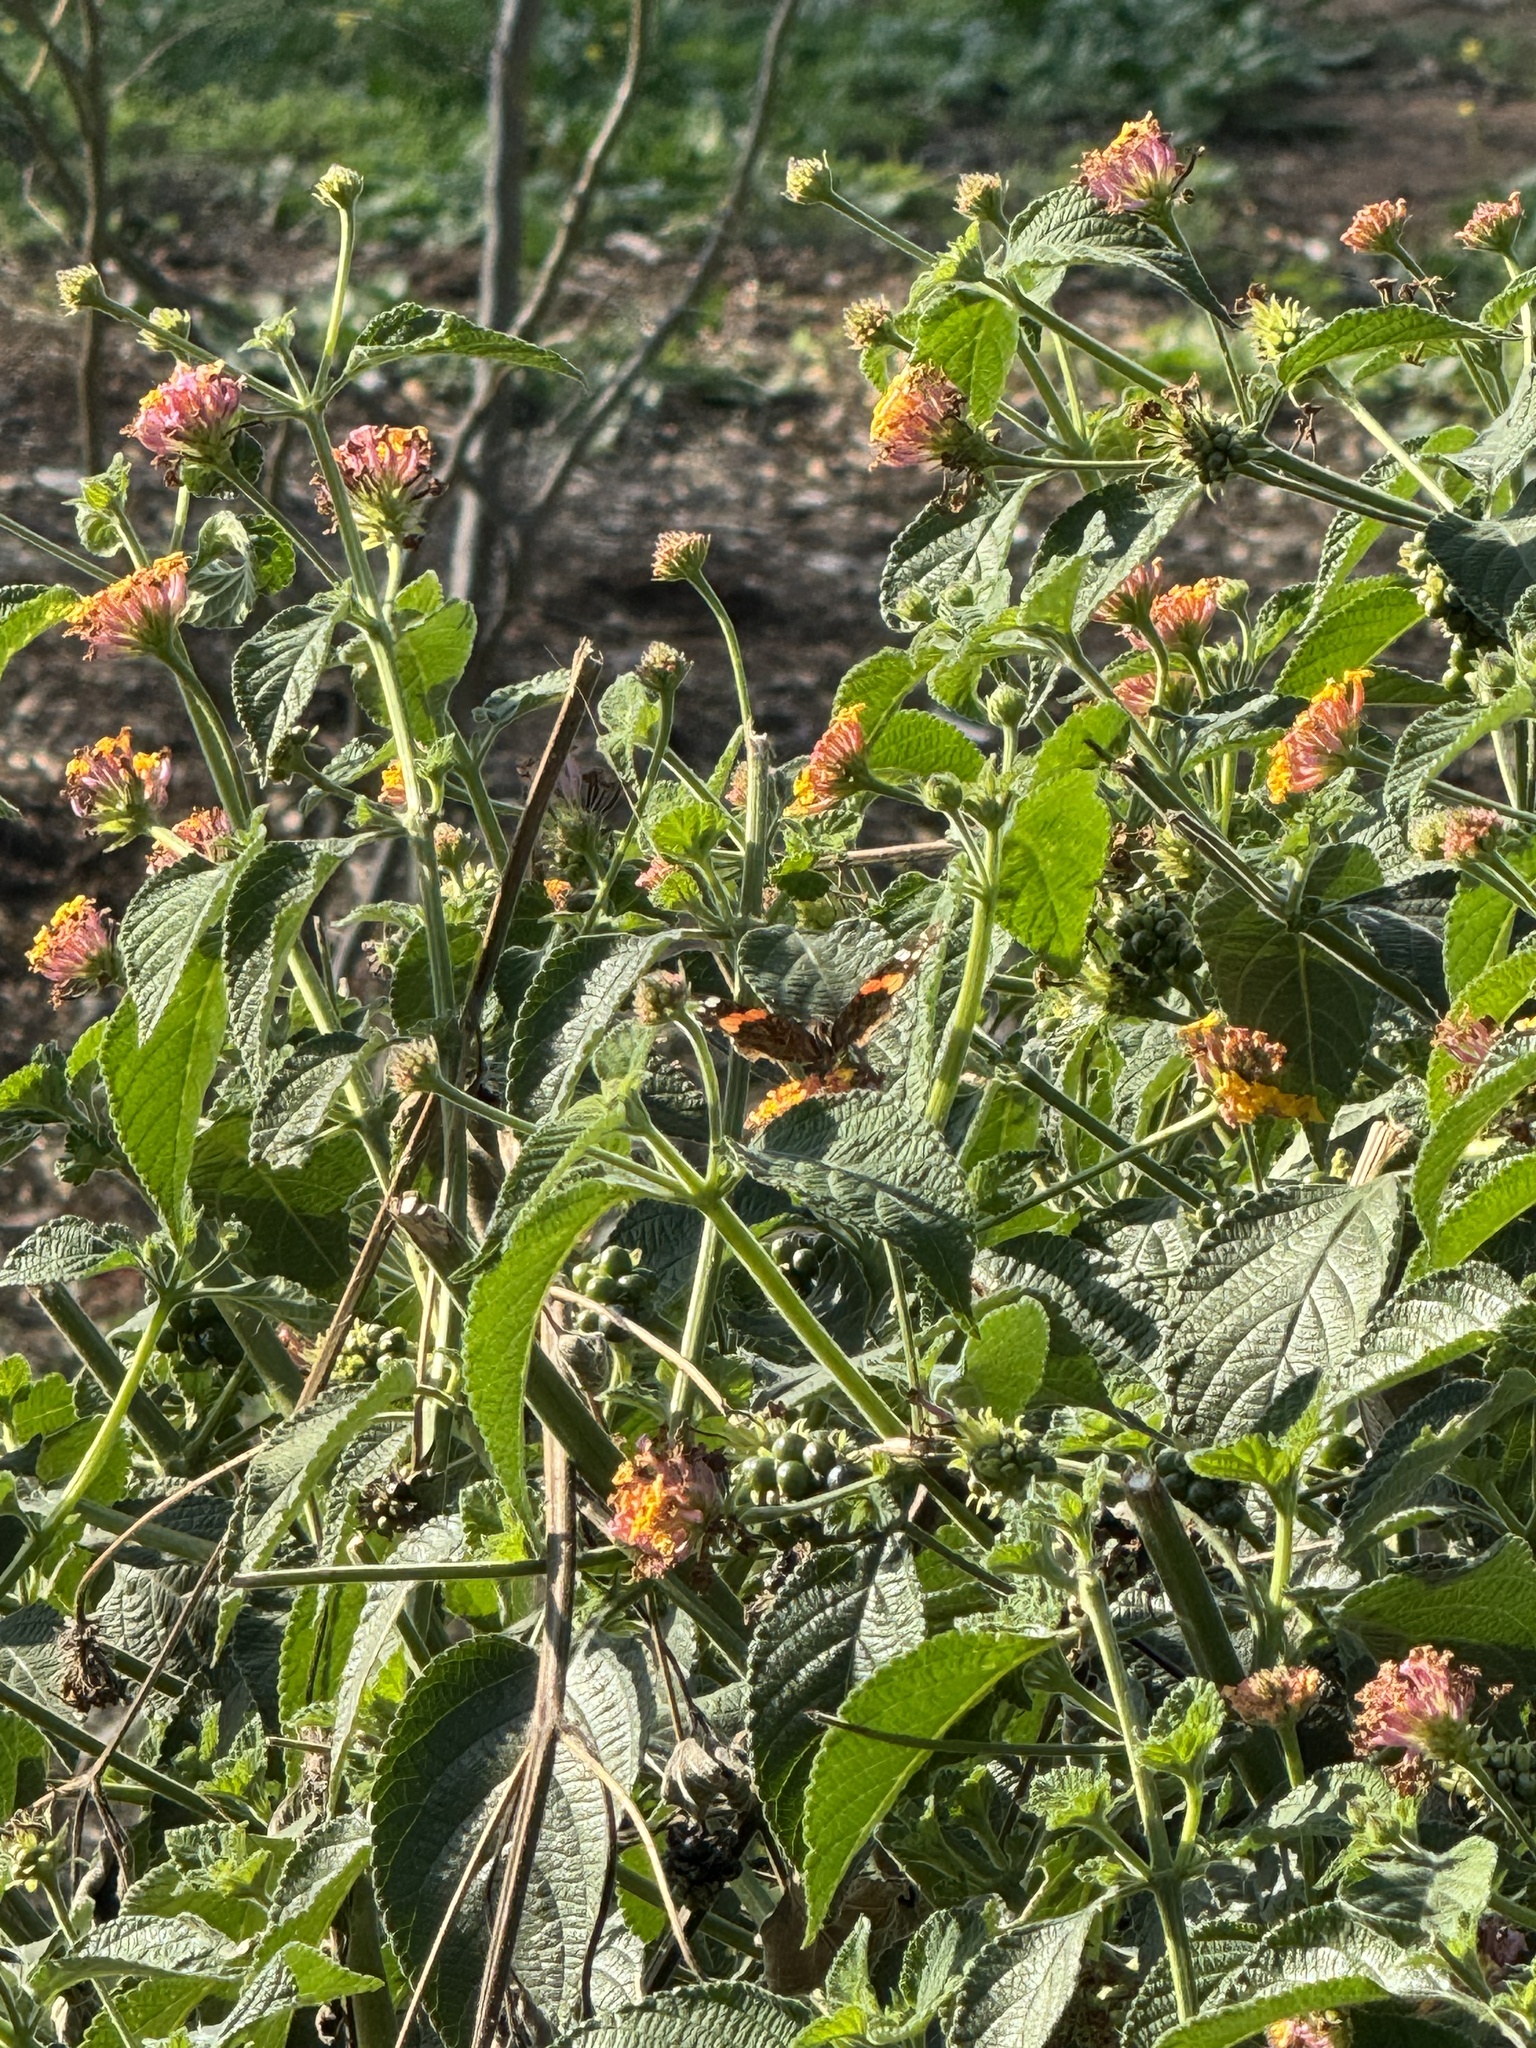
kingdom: Animalia
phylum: Arthropoda
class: Insecta
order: Lepidoptera
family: Nymphalidae
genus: Vanessa
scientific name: Vanessa atalanta
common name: Red admiral
